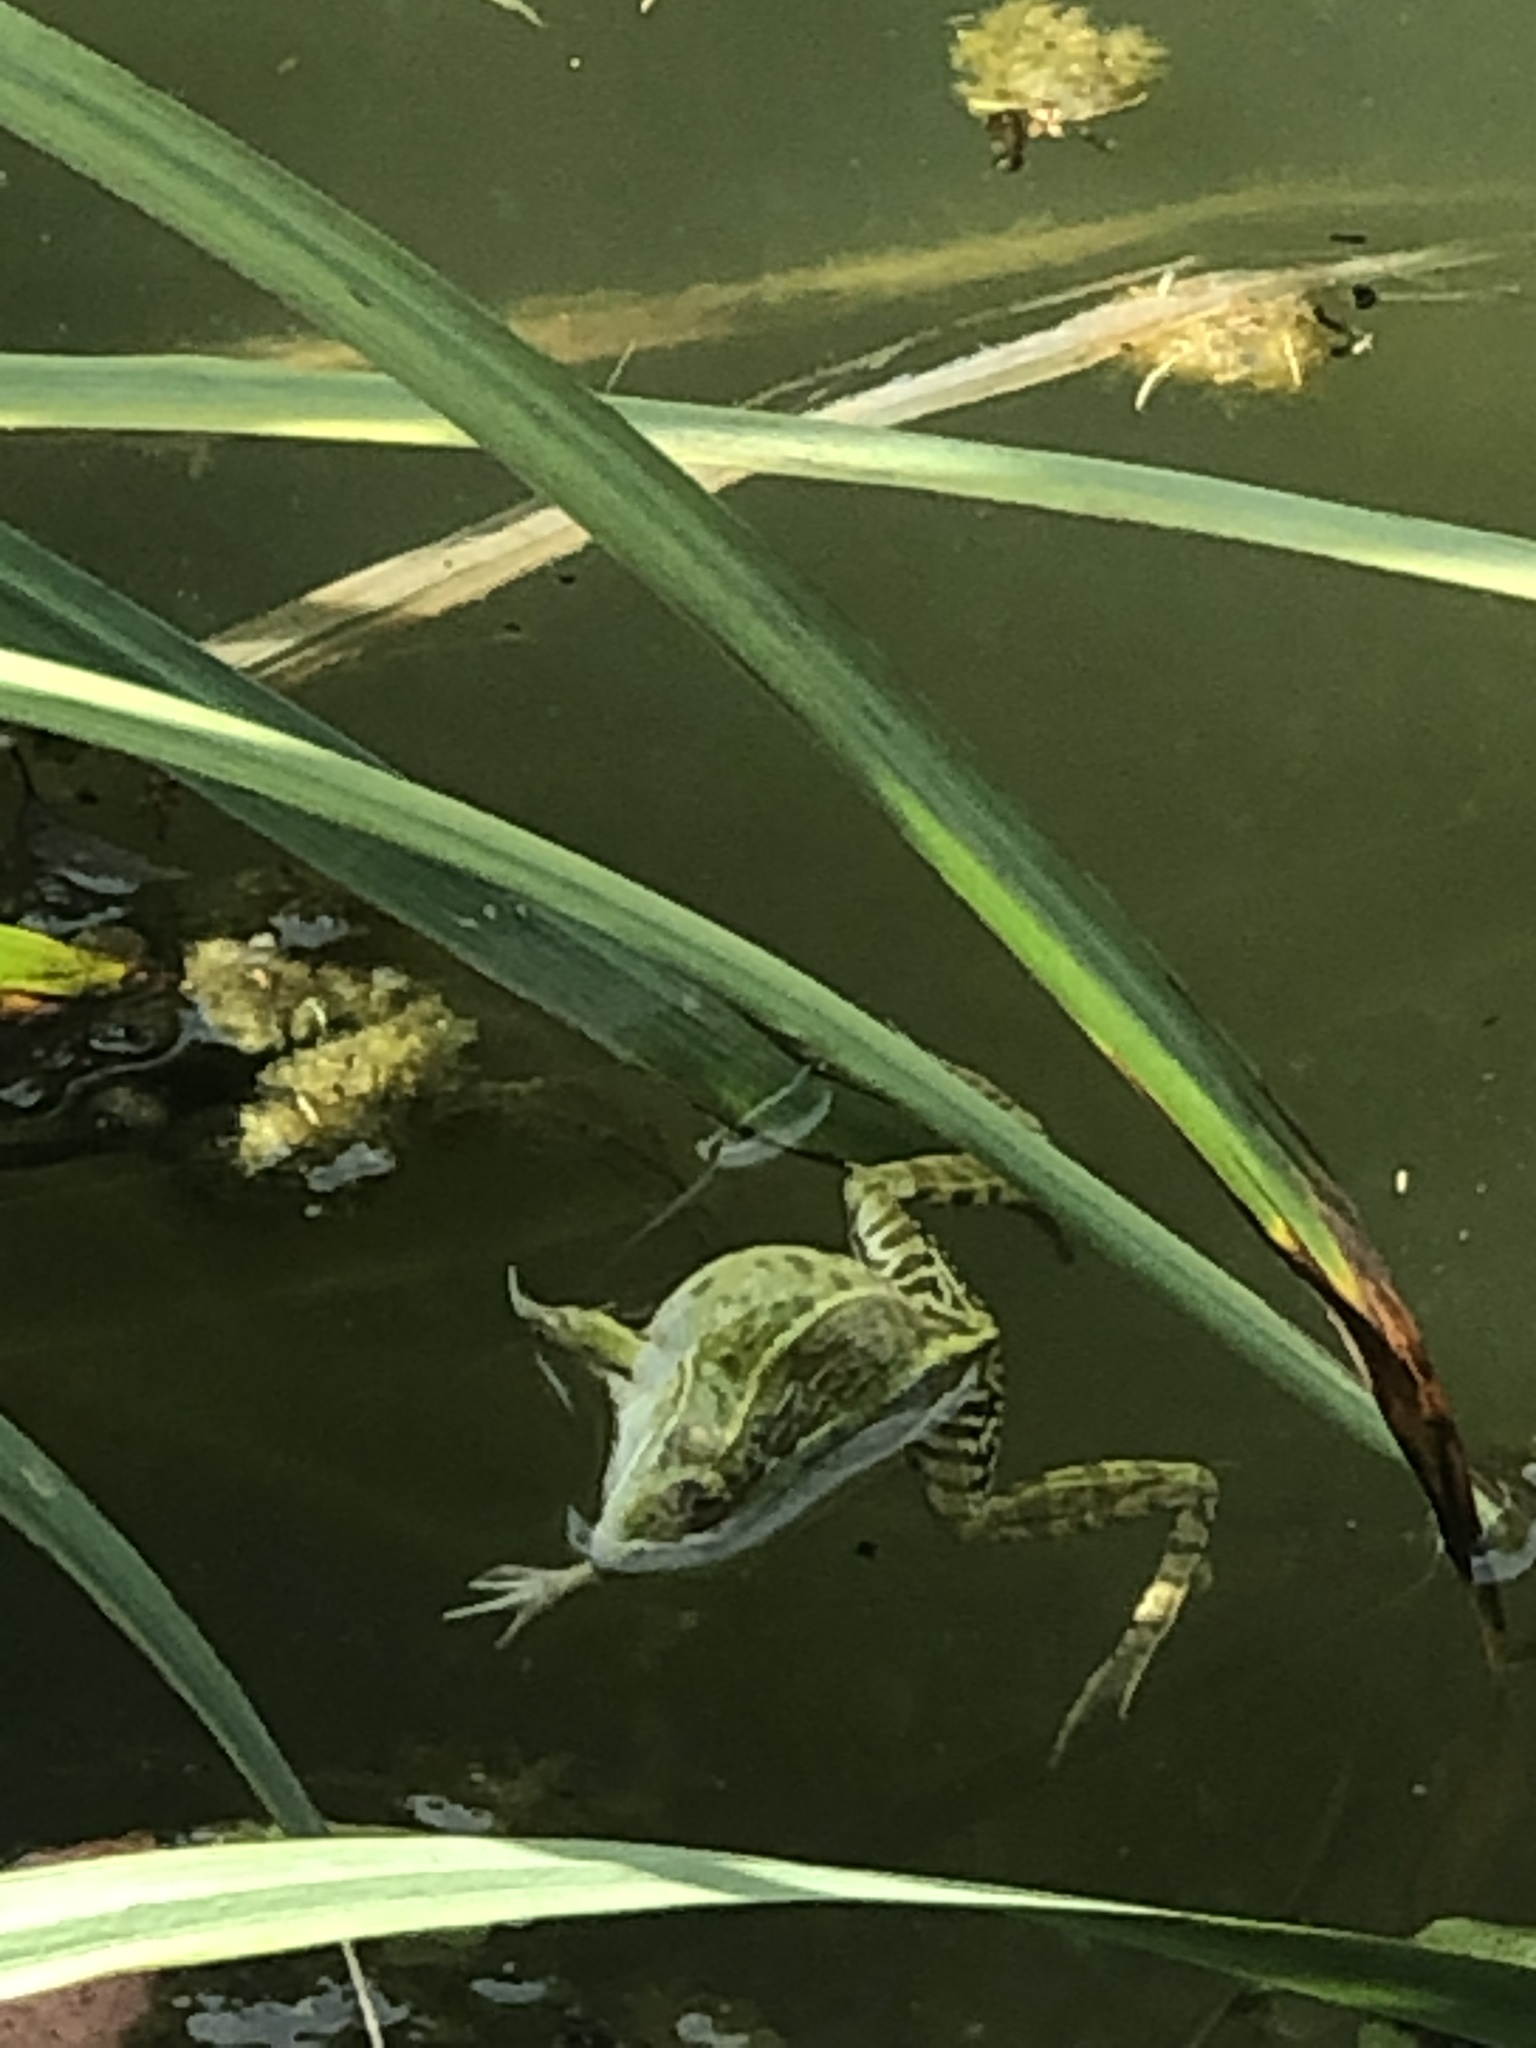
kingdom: Animalia
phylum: Chordata
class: Amphibia
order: Anura
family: Ranidae
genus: Pelophylax
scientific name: Pelophylax nigromaculatus
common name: Black-spotted pond frog
